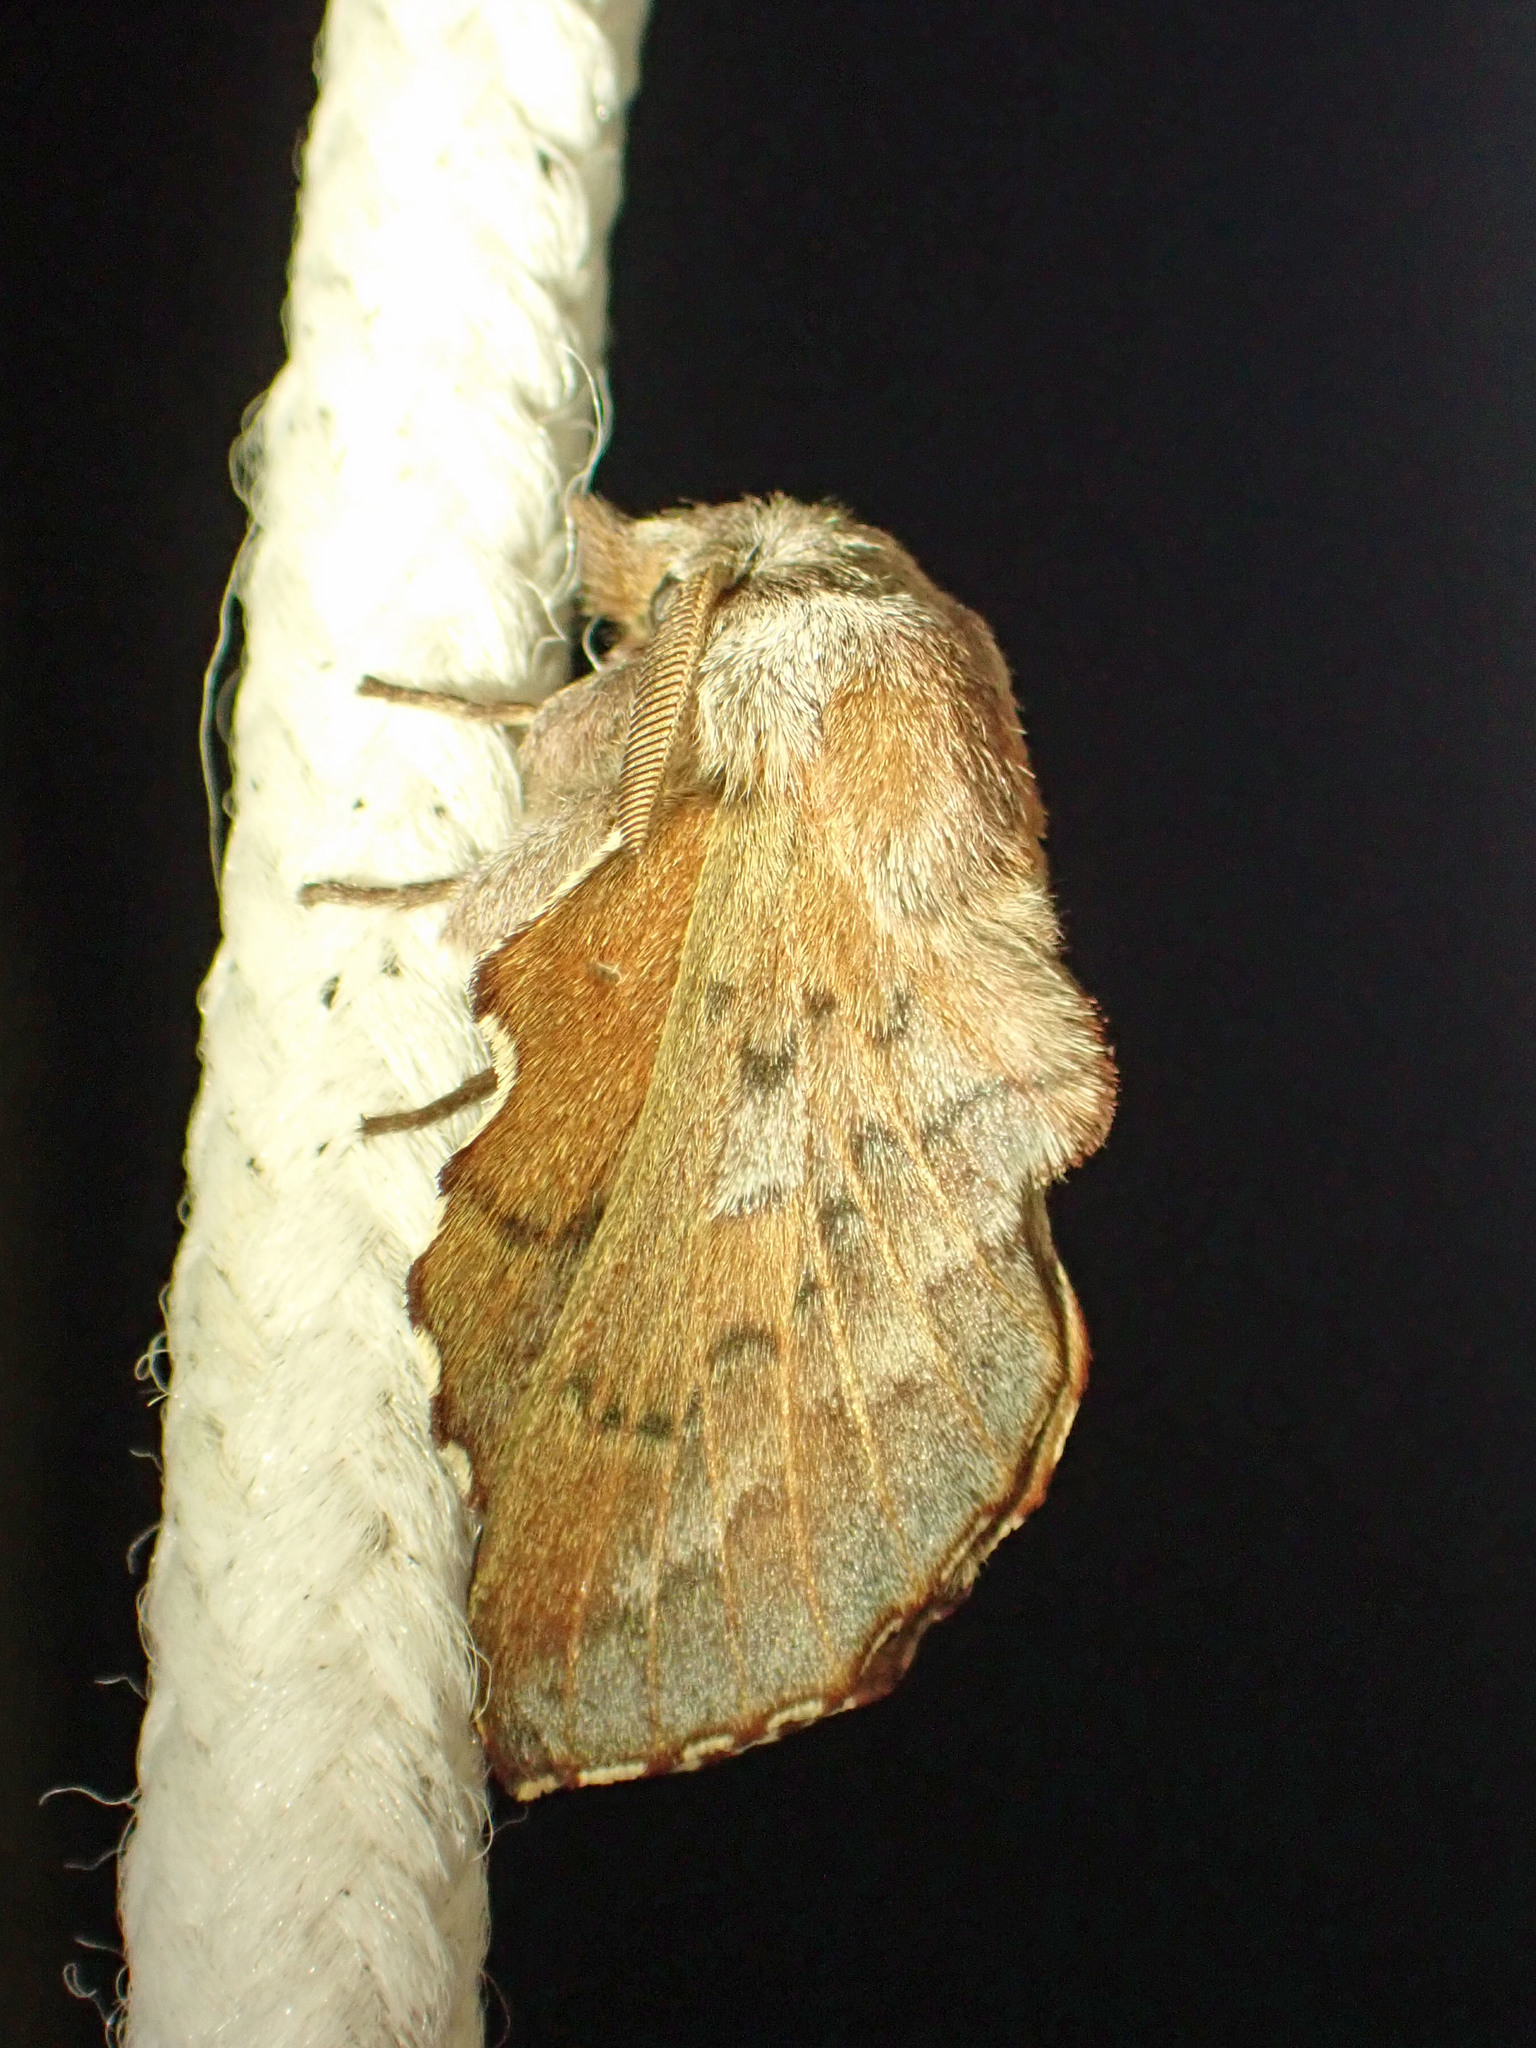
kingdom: Animalia
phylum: Arthropoda
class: Insecta
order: Lepidoptera
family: Lasiocampidae
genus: Phyllodesma
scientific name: Phyllodesma americana
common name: American lappet moth
